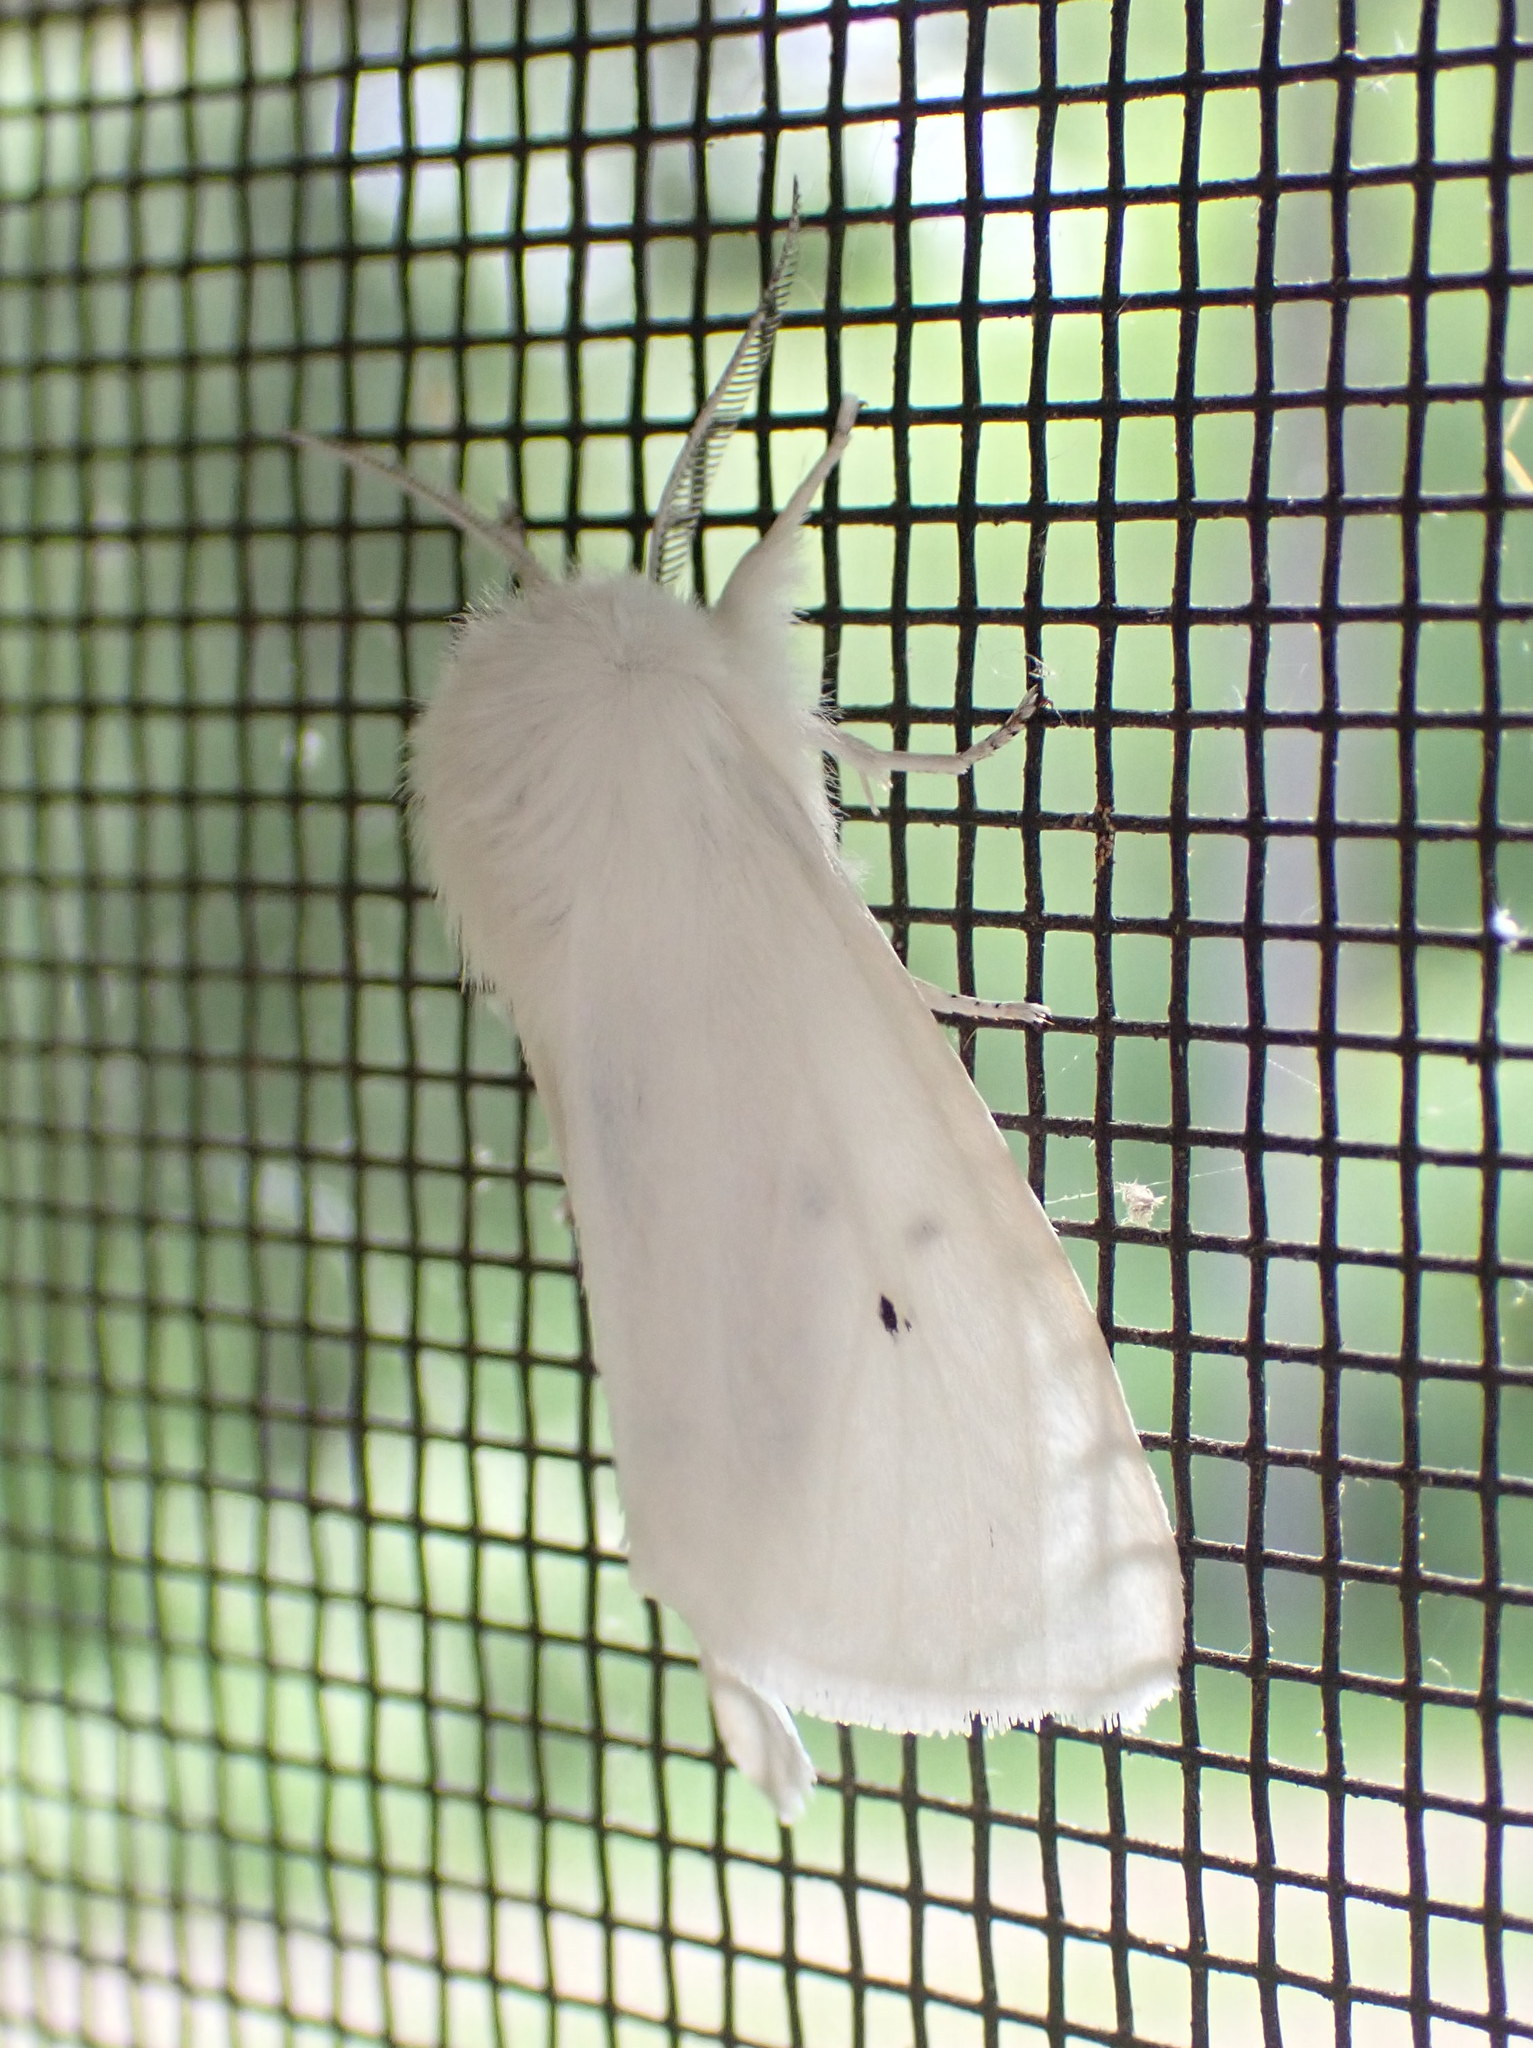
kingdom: Animalia
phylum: Arthropoda
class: Insecta
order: Lepidoptera
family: Erebidae
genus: Spilosoma
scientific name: Spilosoma virginica
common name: Virginia tiger moth
